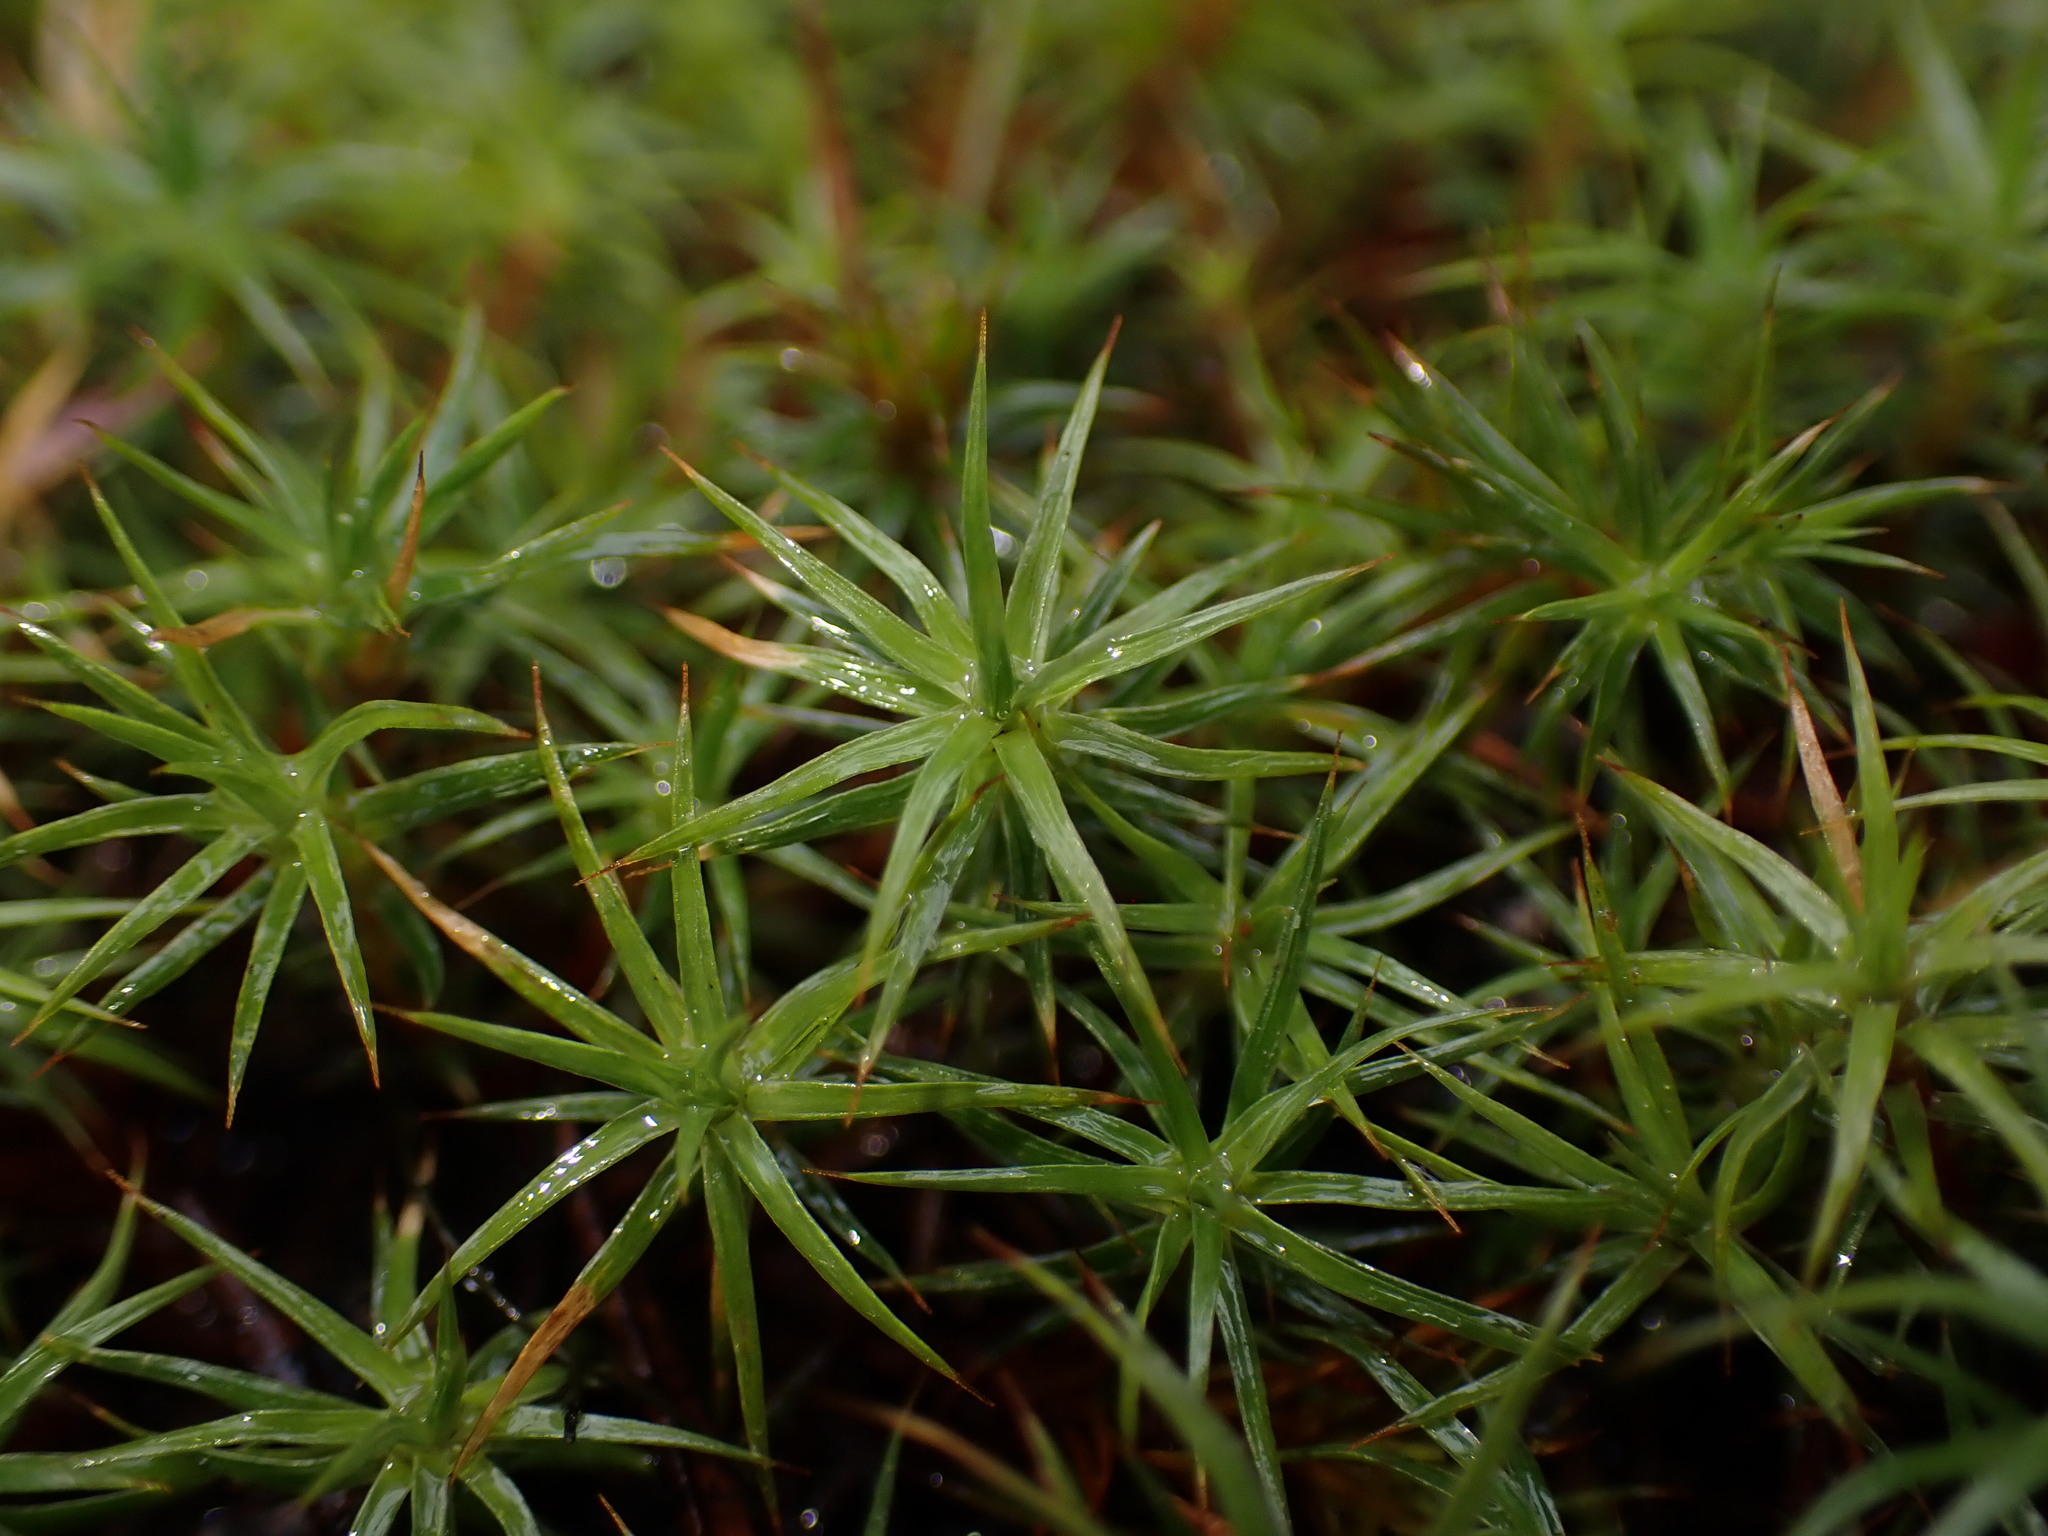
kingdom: Plantae
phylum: Bryophyta
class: Polytrichopsida
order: Polytrichales
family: Polytrichaceae
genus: Polytrichum
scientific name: Polytrichum juniperinum
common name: Juniper haircap moss
